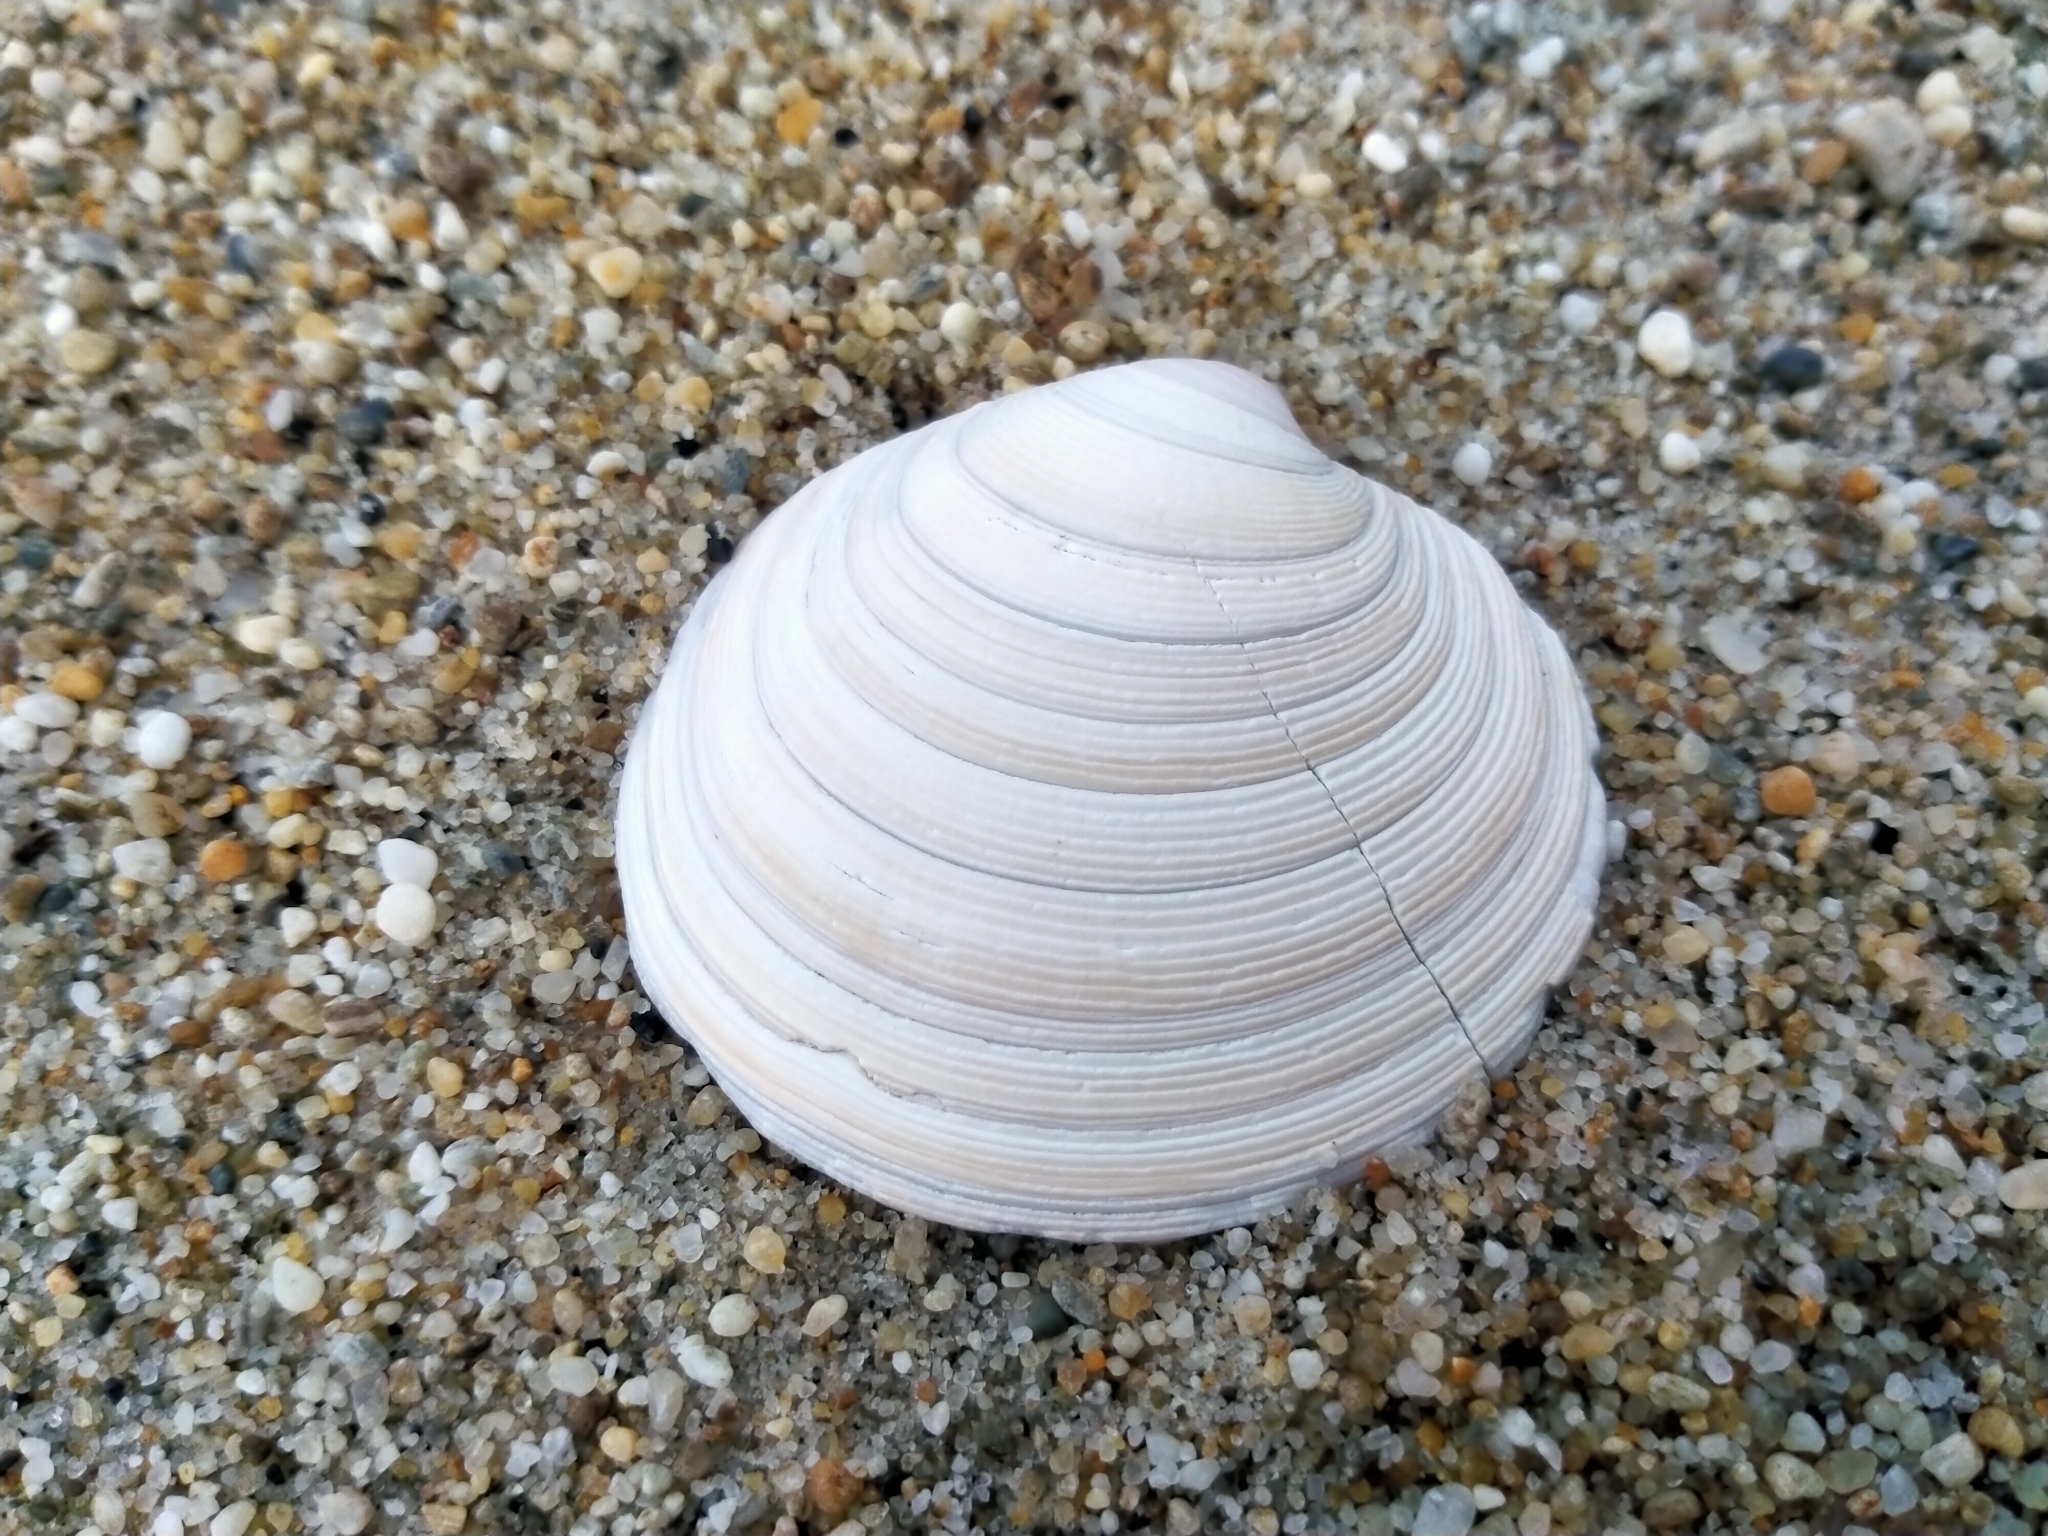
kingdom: Animalia
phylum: Mollusca
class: Bivalvia
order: Venerida
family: Veneridae
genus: Dosinia
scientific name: Dosinia anus
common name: Old-woman dosinia
